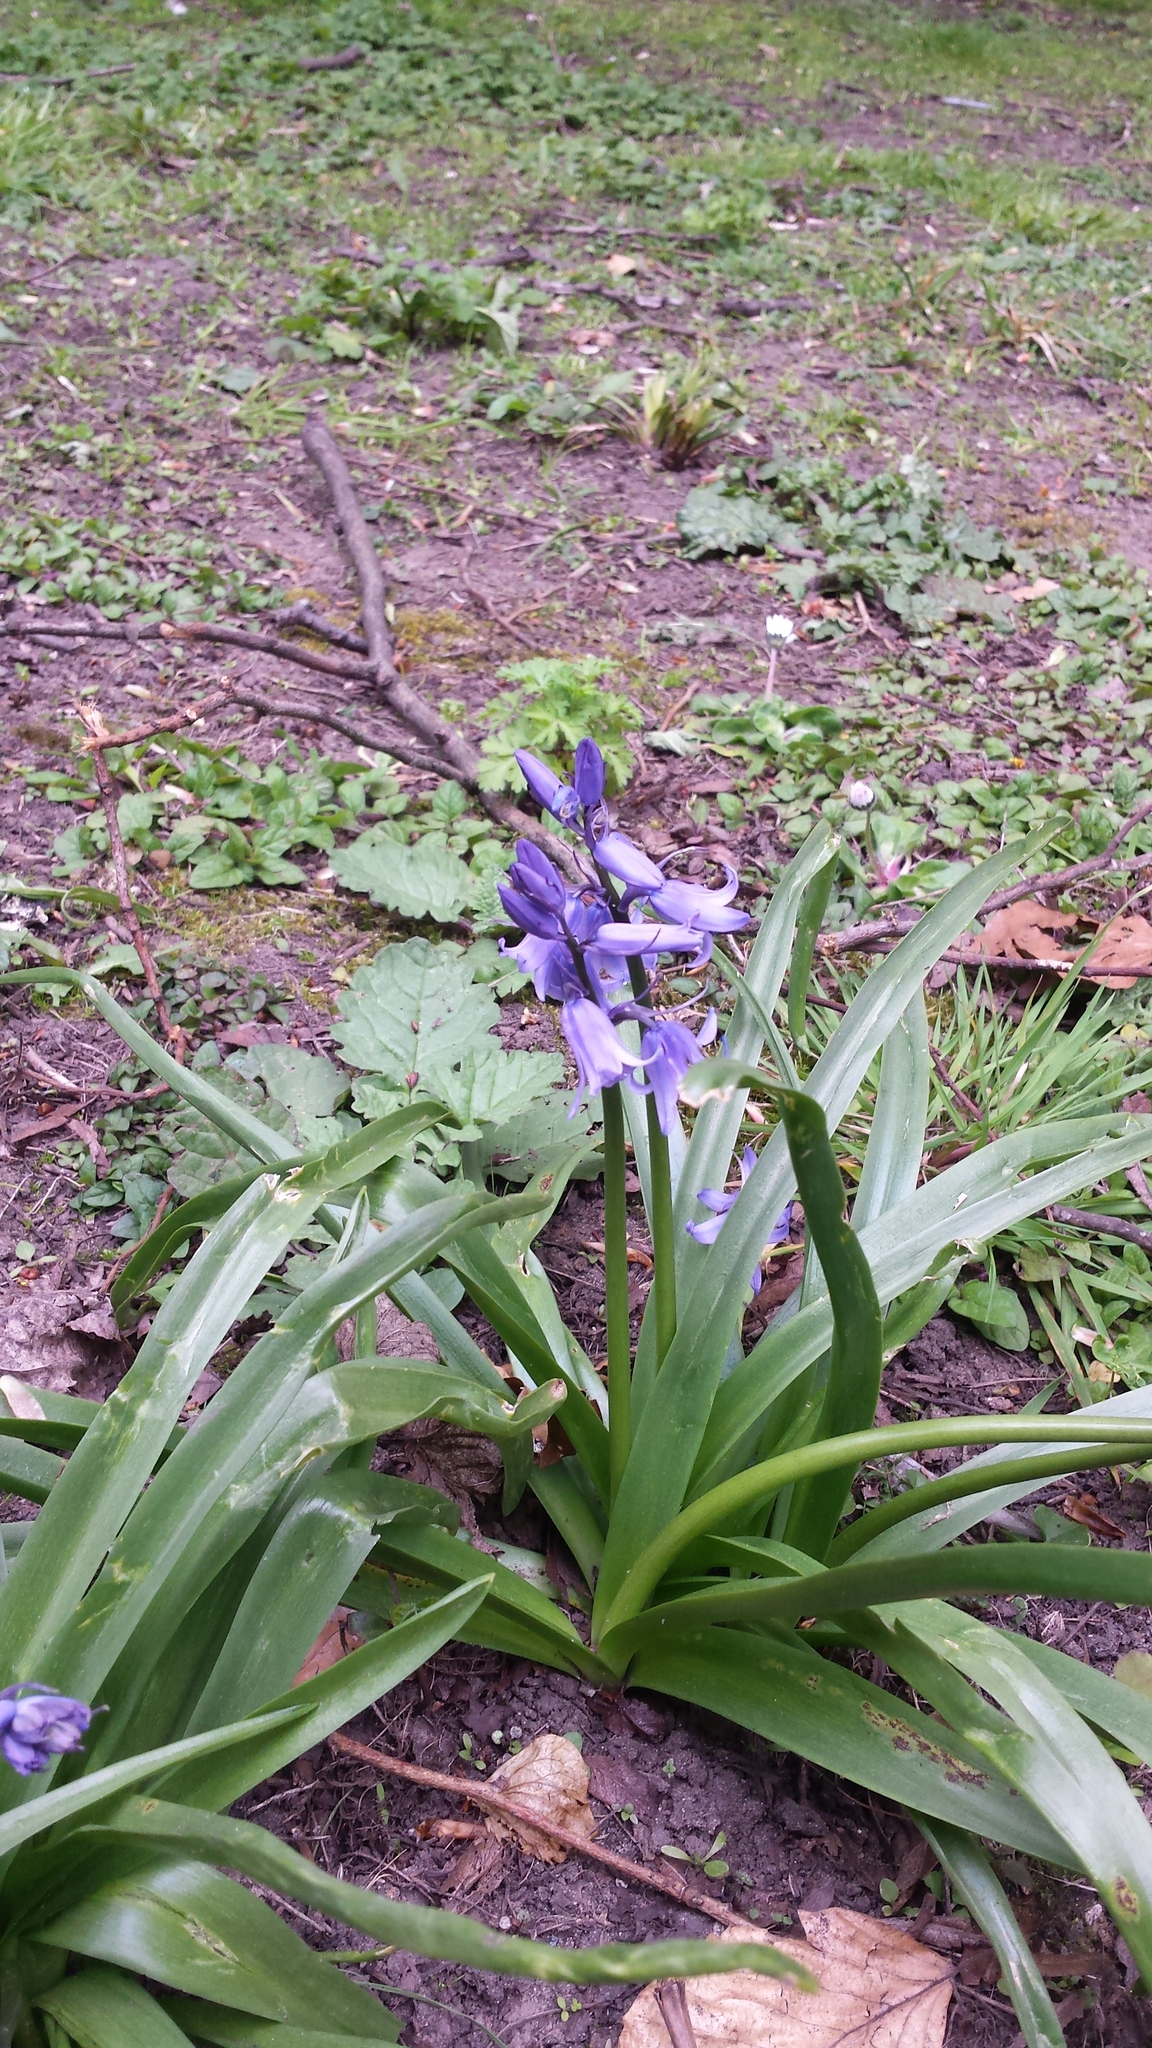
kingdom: Plantae
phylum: Tracheophyta
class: Liliopsida
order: Asparagales
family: Asparagaceae
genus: Hyacinthoides
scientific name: Hyacinthoides massartiana
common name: Hyacinthoides
